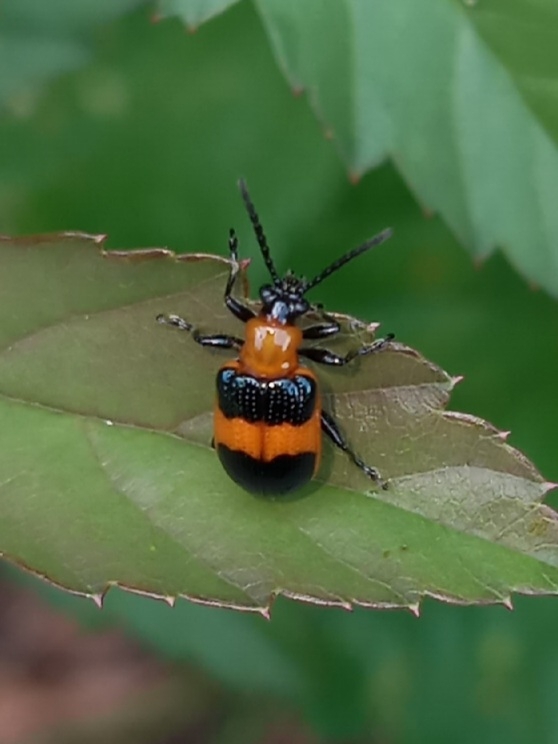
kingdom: Animalia
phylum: Arthropoda
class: Insecta
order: Coleoptera
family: Chrysomelidae
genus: Lema
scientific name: Lema solani
